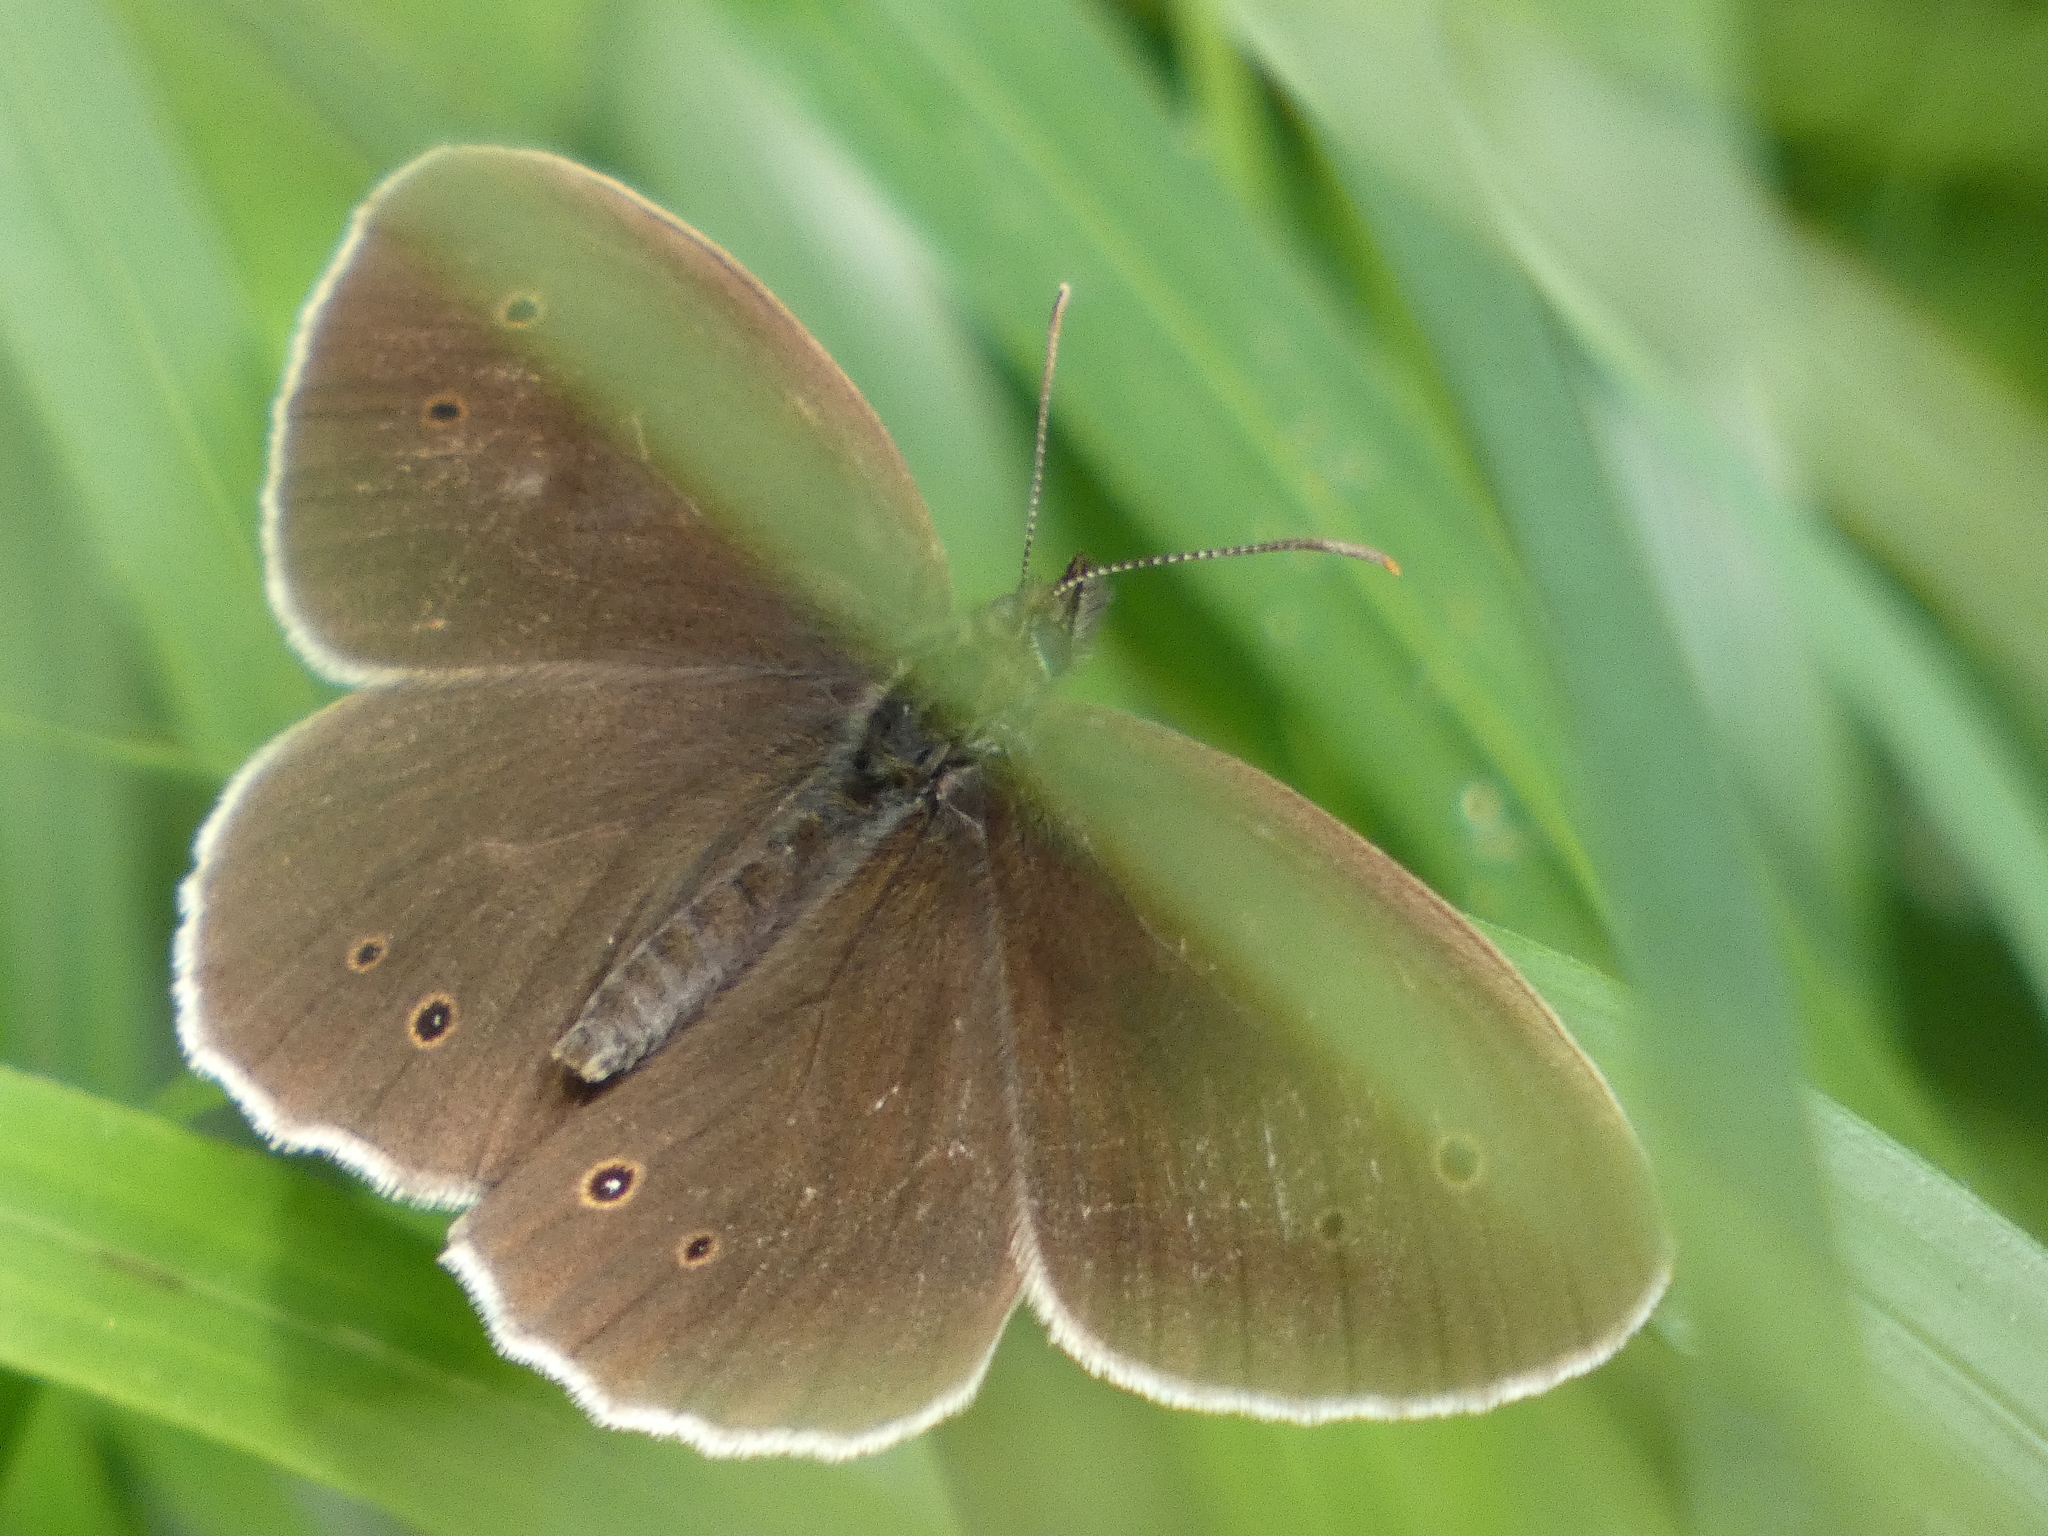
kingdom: Animalia
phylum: Arthropoda
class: Insecta
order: Lepidoptera
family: Nymphalidae
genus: Aphantopus
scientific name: Aphantopus hyperantus
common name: Ringlet
